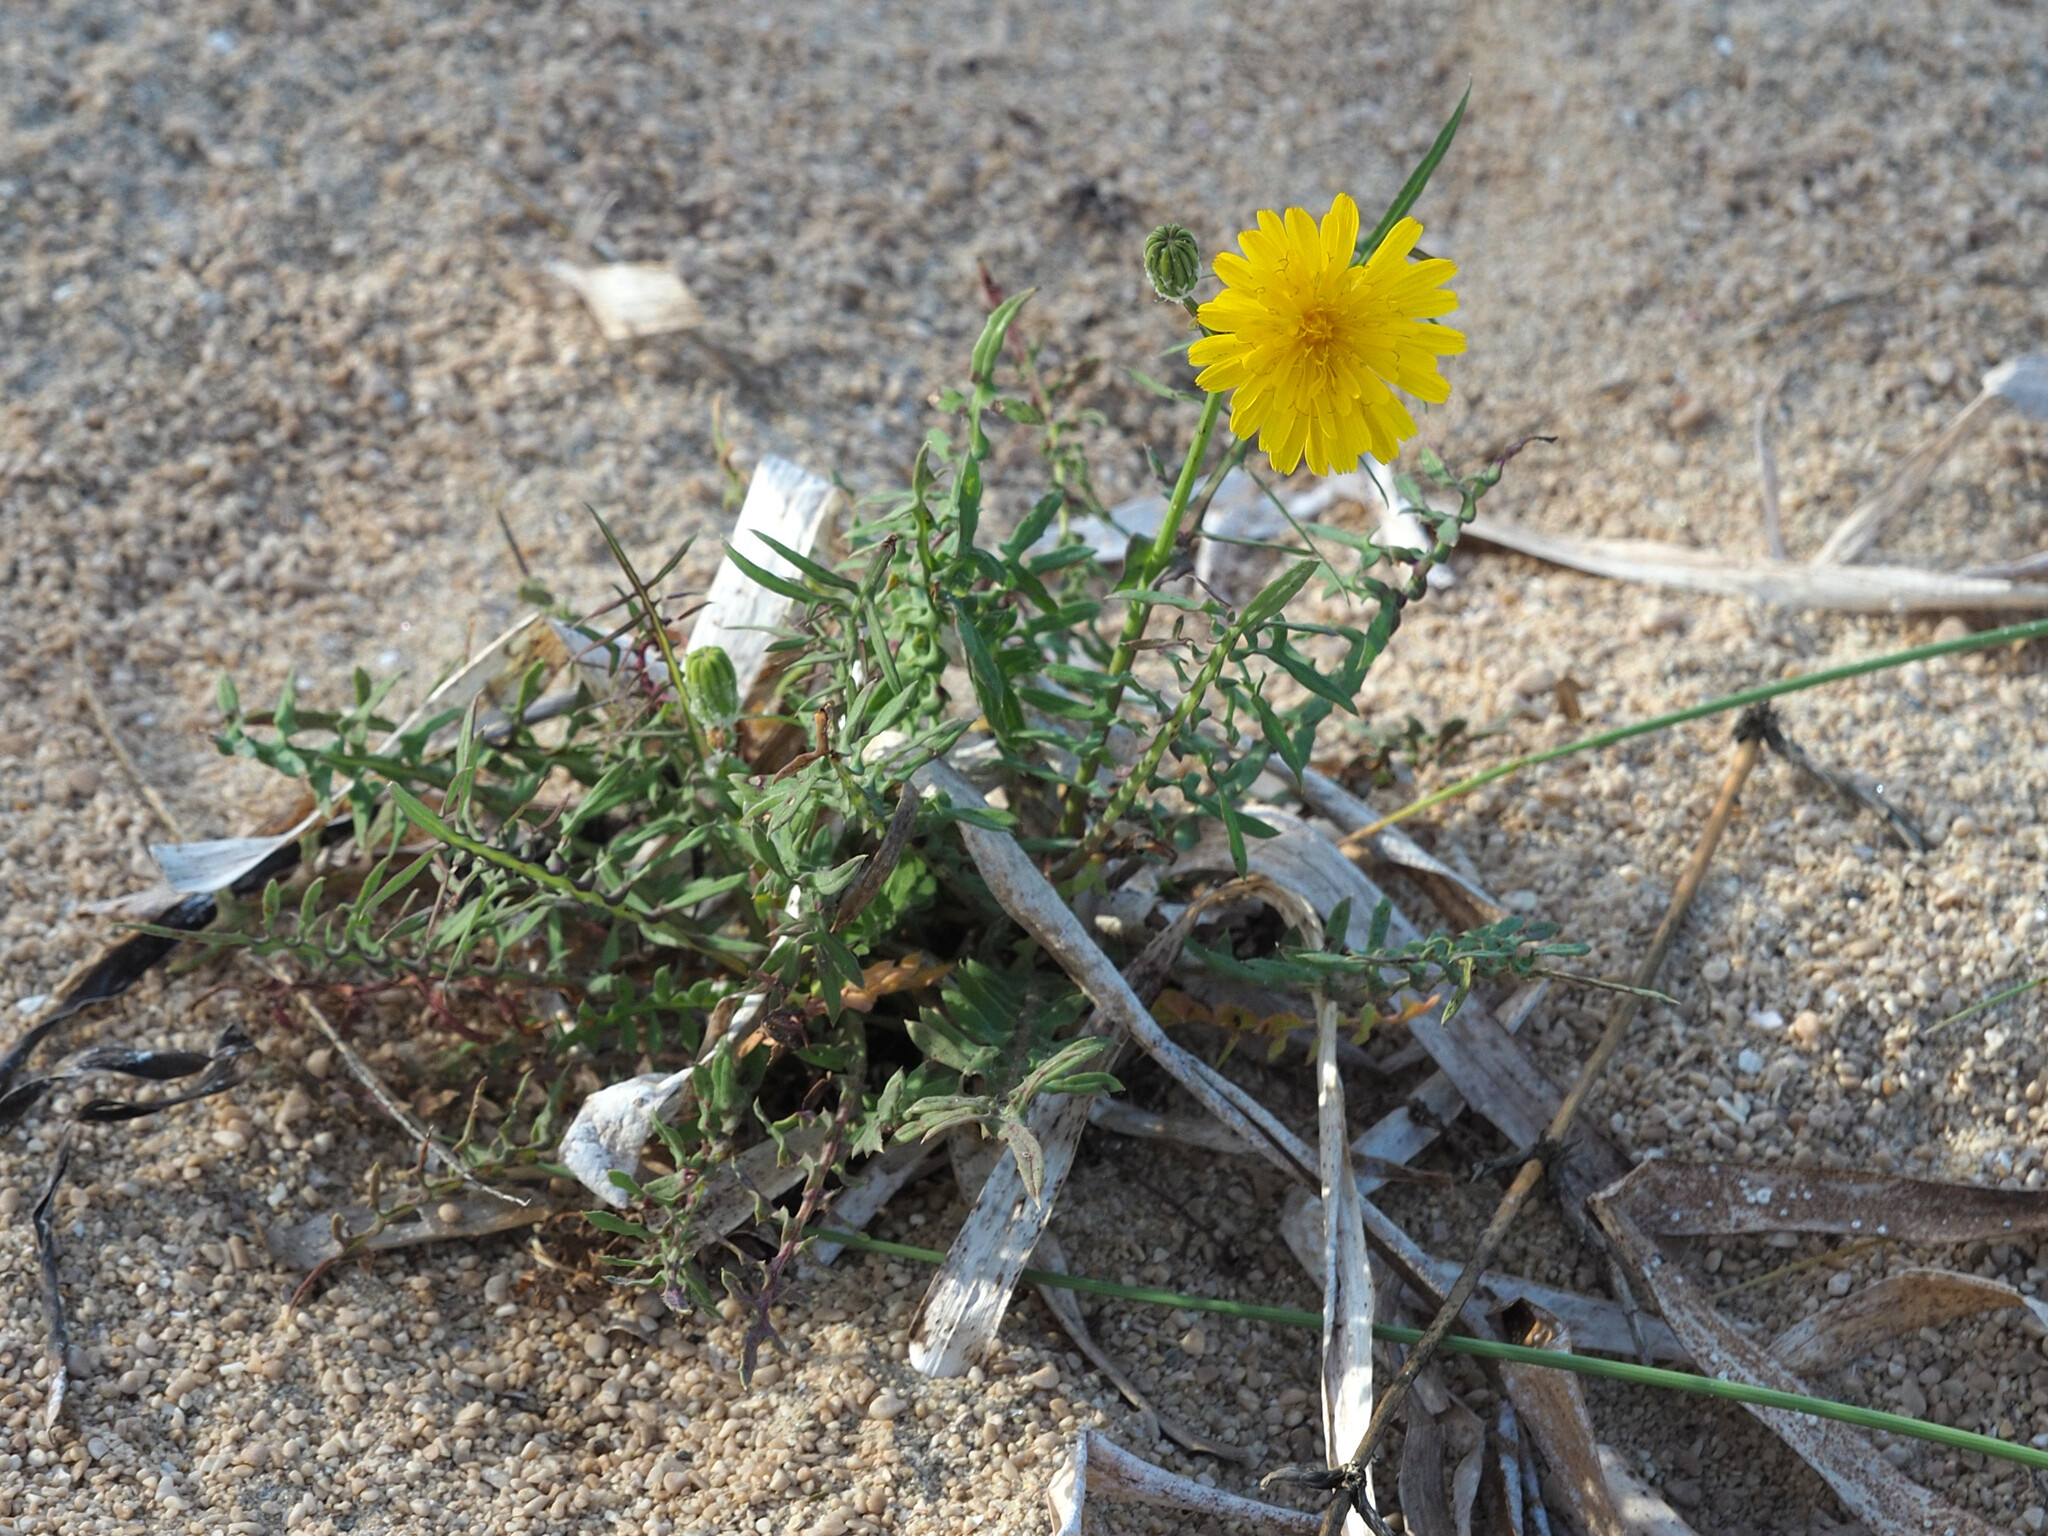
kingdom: Plantae
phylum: Tracheophyta
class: Magnoliopsida
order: Asterales
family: Asteraceae
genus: Sonchus
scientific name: Sonchus tenerrimus
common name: Clammy sowthistle
